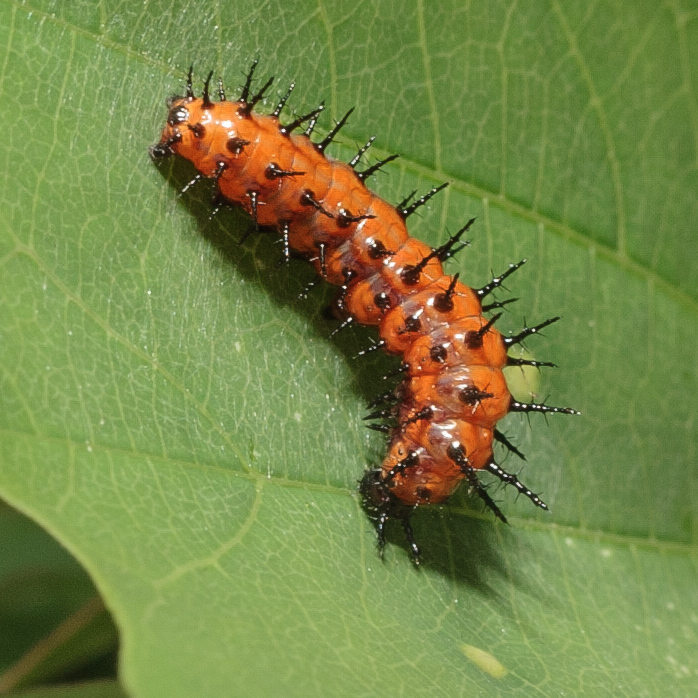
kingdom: Animalia
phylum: Arthropoda
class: Insecta
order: Lepidoptera
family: Nymphalidae
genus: Dione
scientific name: Dione vanillae
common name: Gulf fritillary
